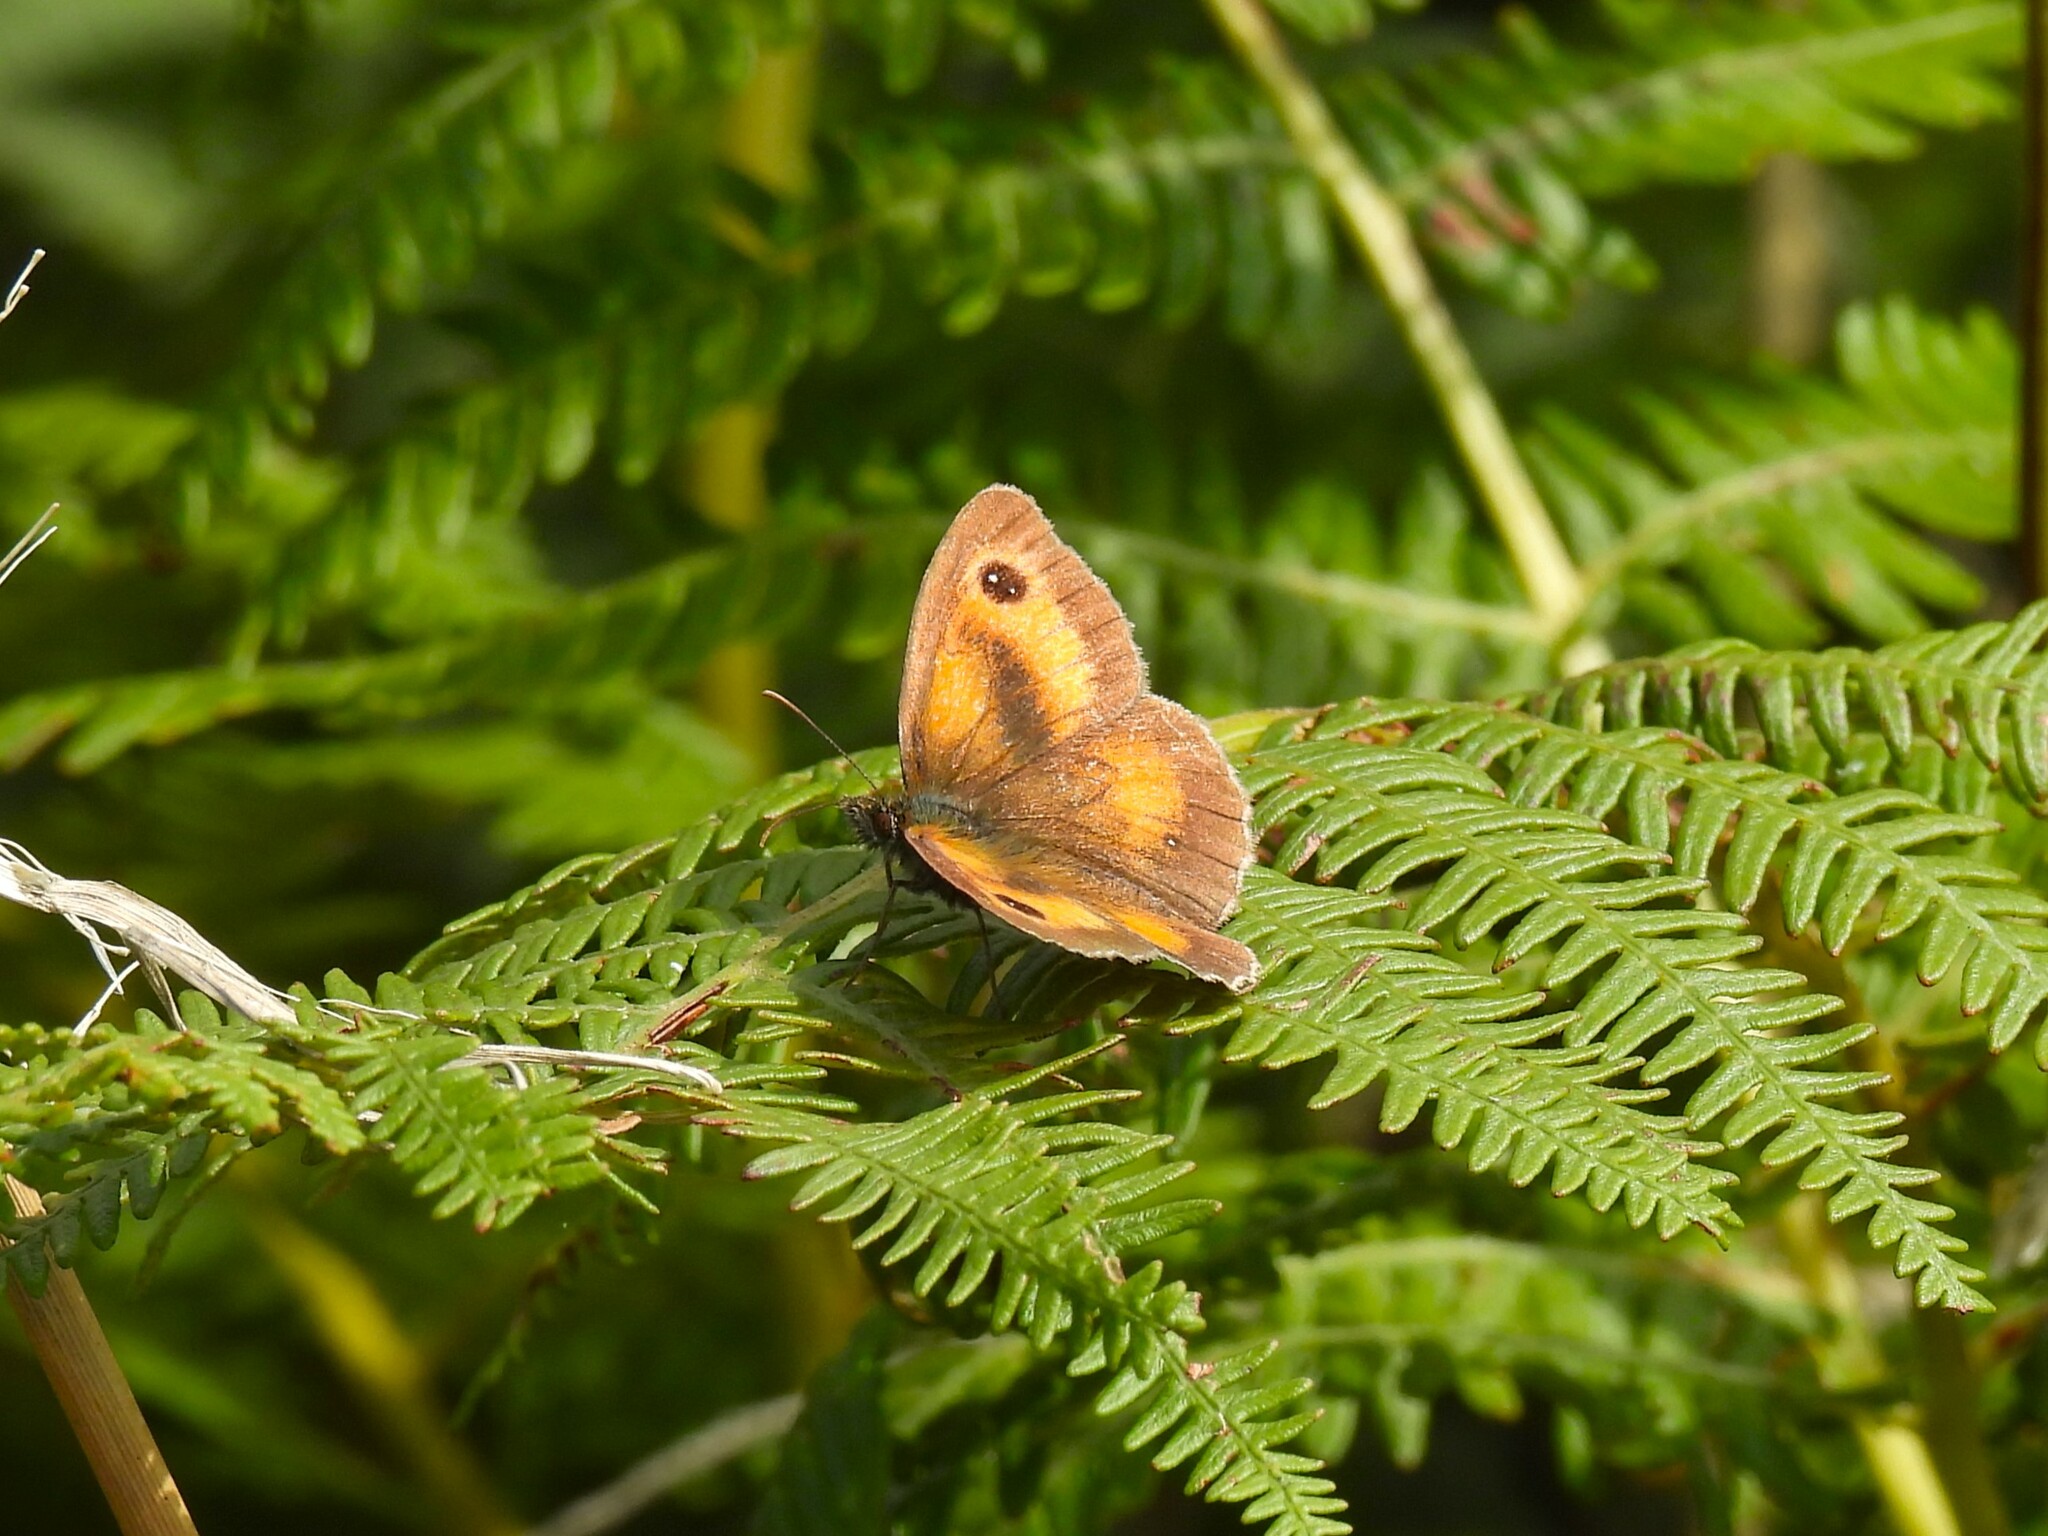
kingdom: Animalia
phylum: Arthropoda
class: Insecta
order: Lepidoptera
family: Nymphalidae
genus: Pyronia
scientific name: Pyronia tithonus
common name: Gatekeeper
